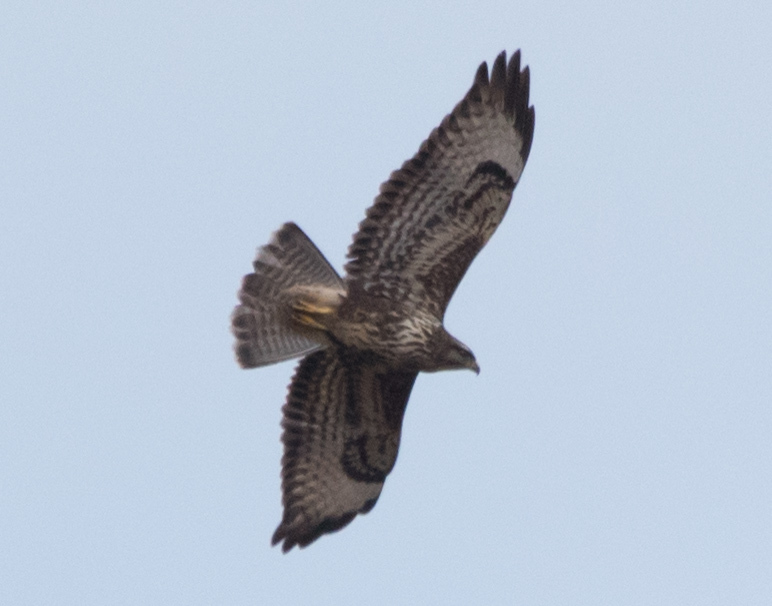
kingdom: Animalia
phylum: Chordata
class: Aves
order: Accipitriformes
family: Accipitridae
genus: Buteo
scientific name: Buteo buteo
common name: Common buzzard
